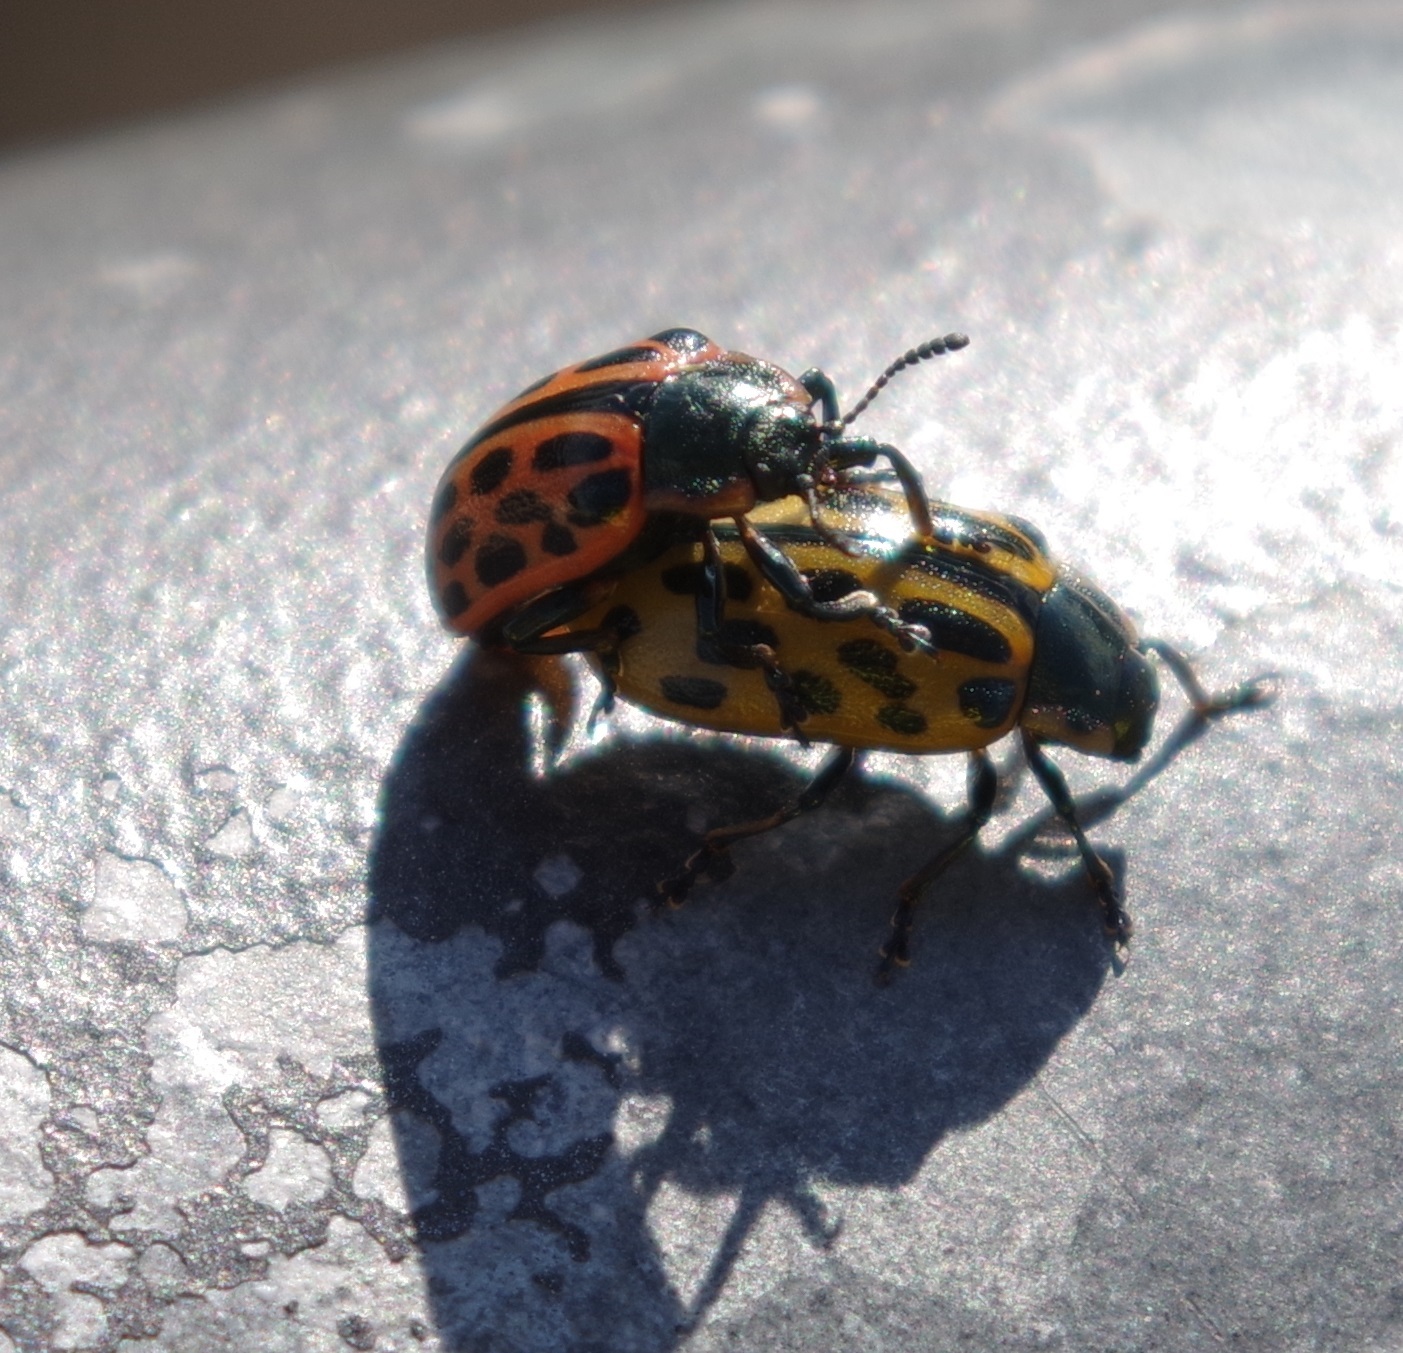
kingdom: Animalia
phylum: Arthropoda
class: Insecta
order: Coleoptera
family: Chrysomelidae
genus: Chrysomela
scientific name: Chrysomela vigintipunctata
